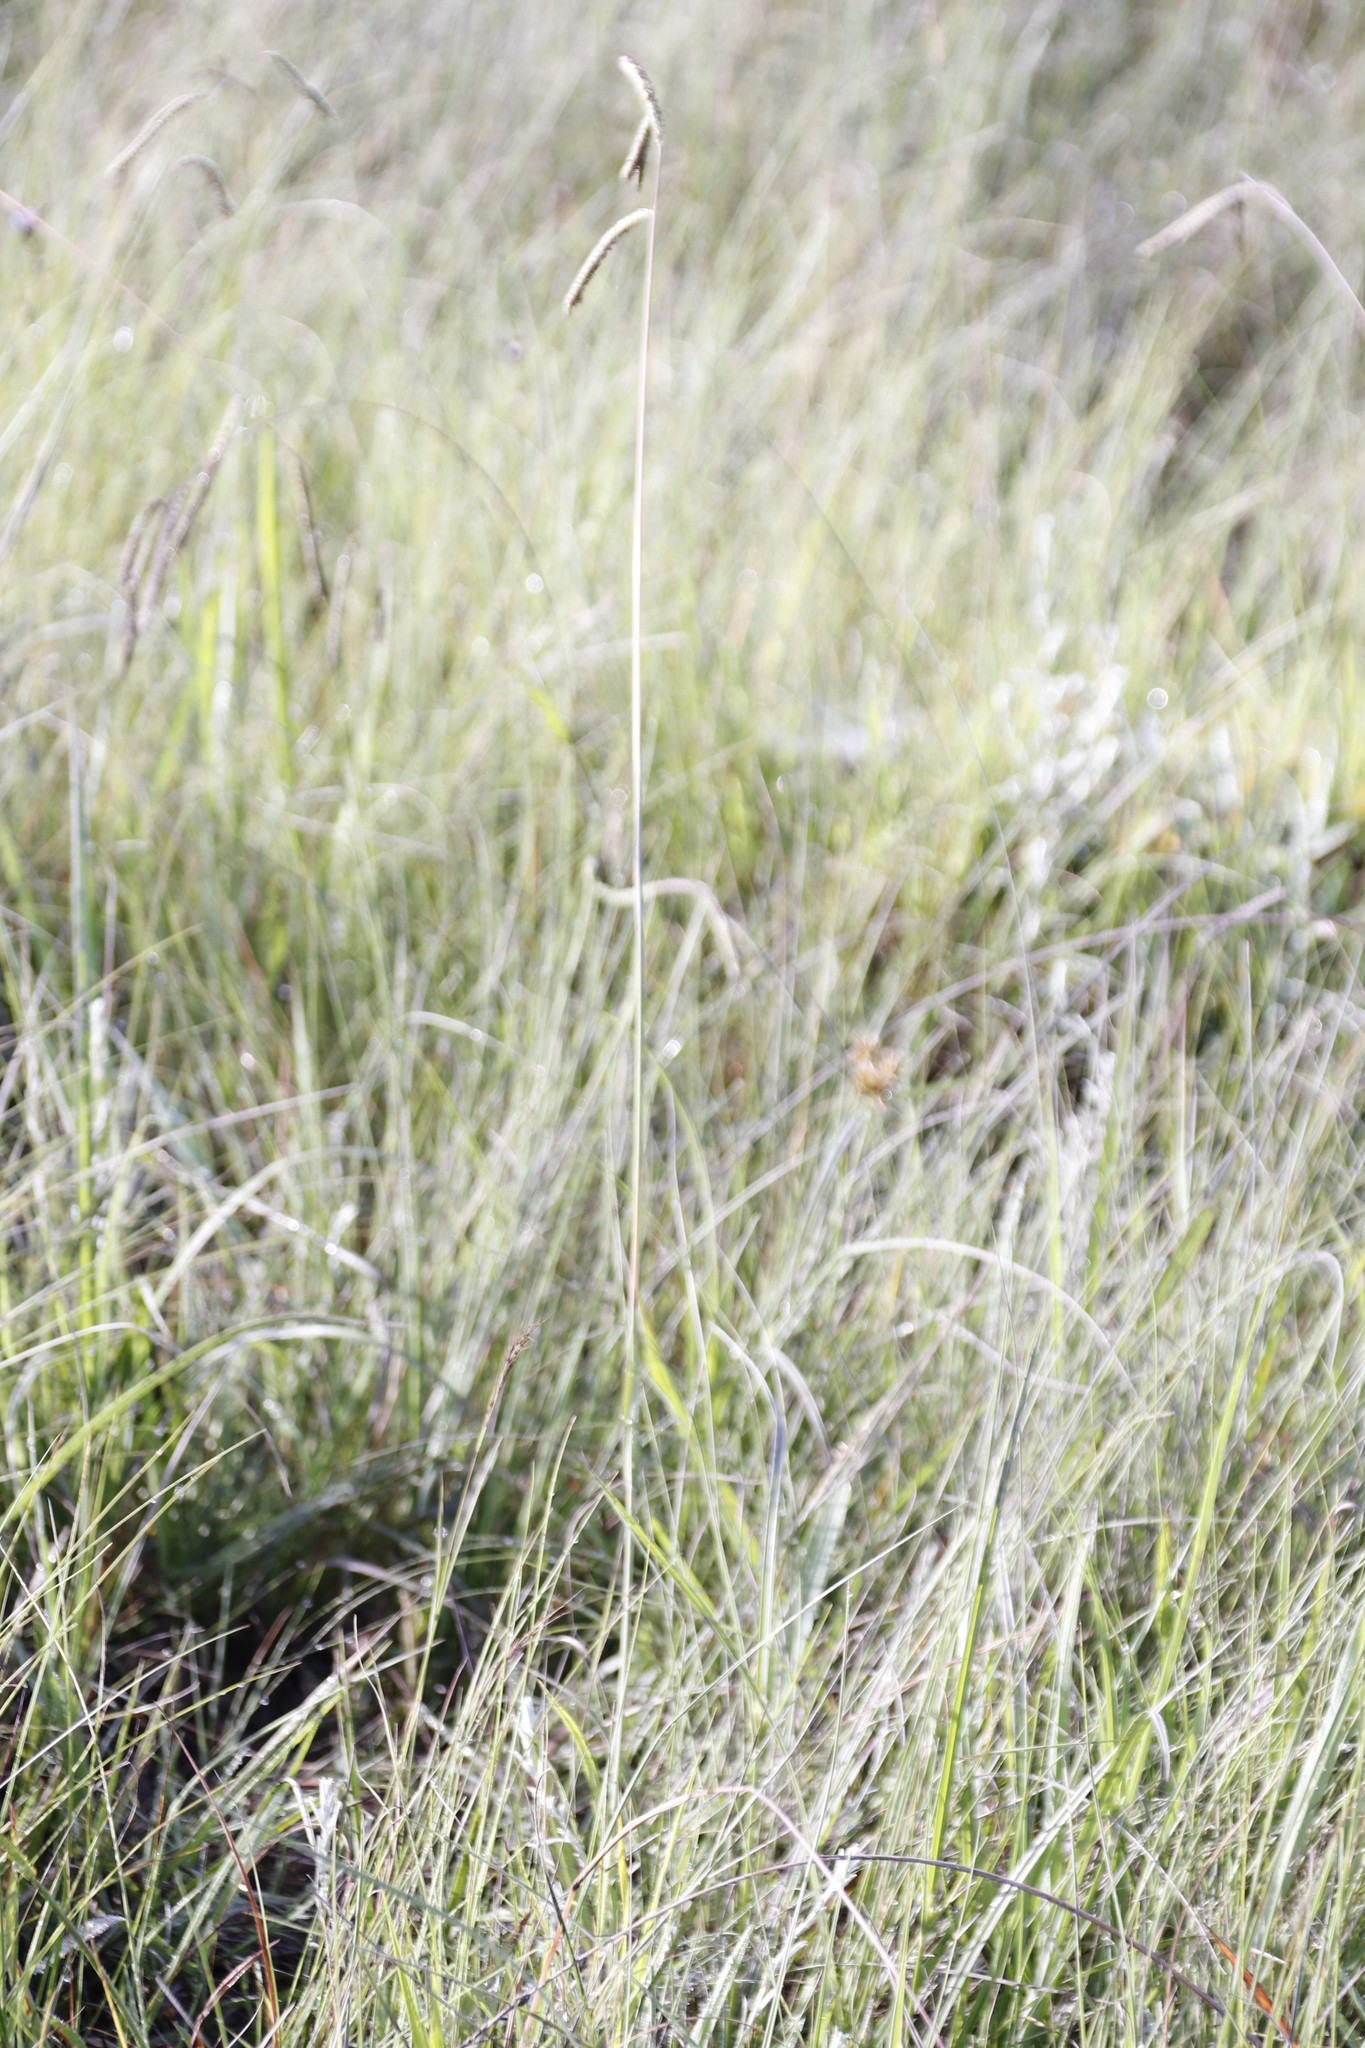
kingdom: Plantae
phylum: Tracheophyta
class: Liliopsida
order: Poales
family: Poaceae
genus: Paspalum
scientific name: Paspalum dilatatum
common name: Dallisgrass
